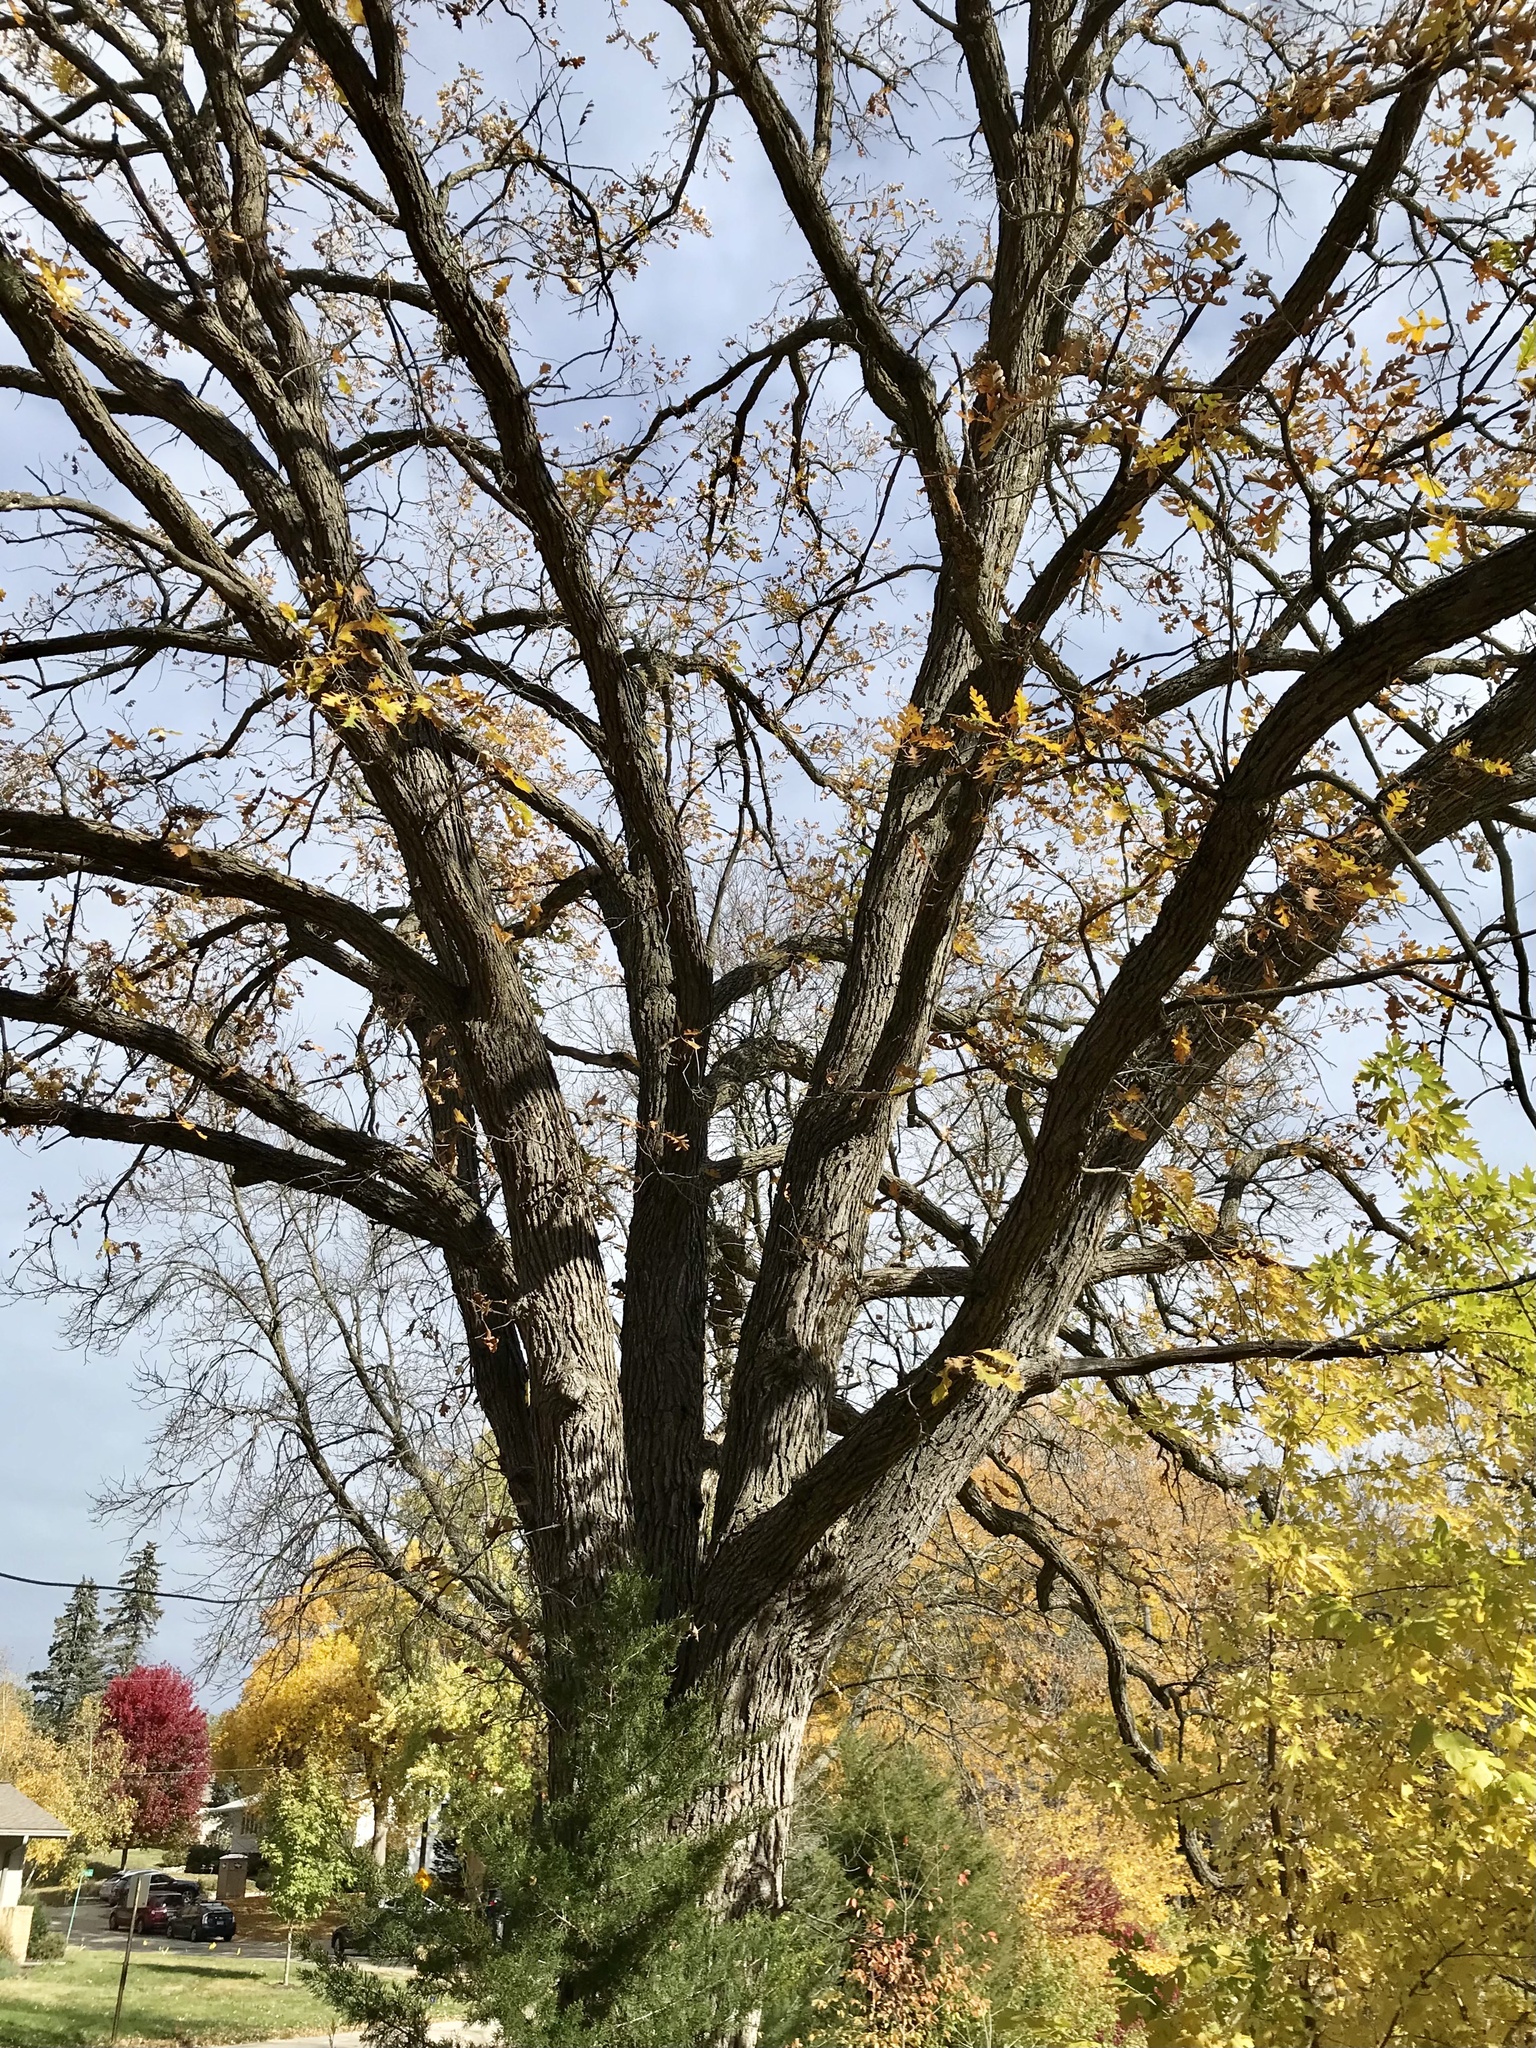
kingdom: Plantae
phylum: Tracheophyta
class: Magnoliopsida
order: Fagales
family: Fagaceae
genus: Quercus
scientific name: Quercus macrocarpa
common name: Bur oak
